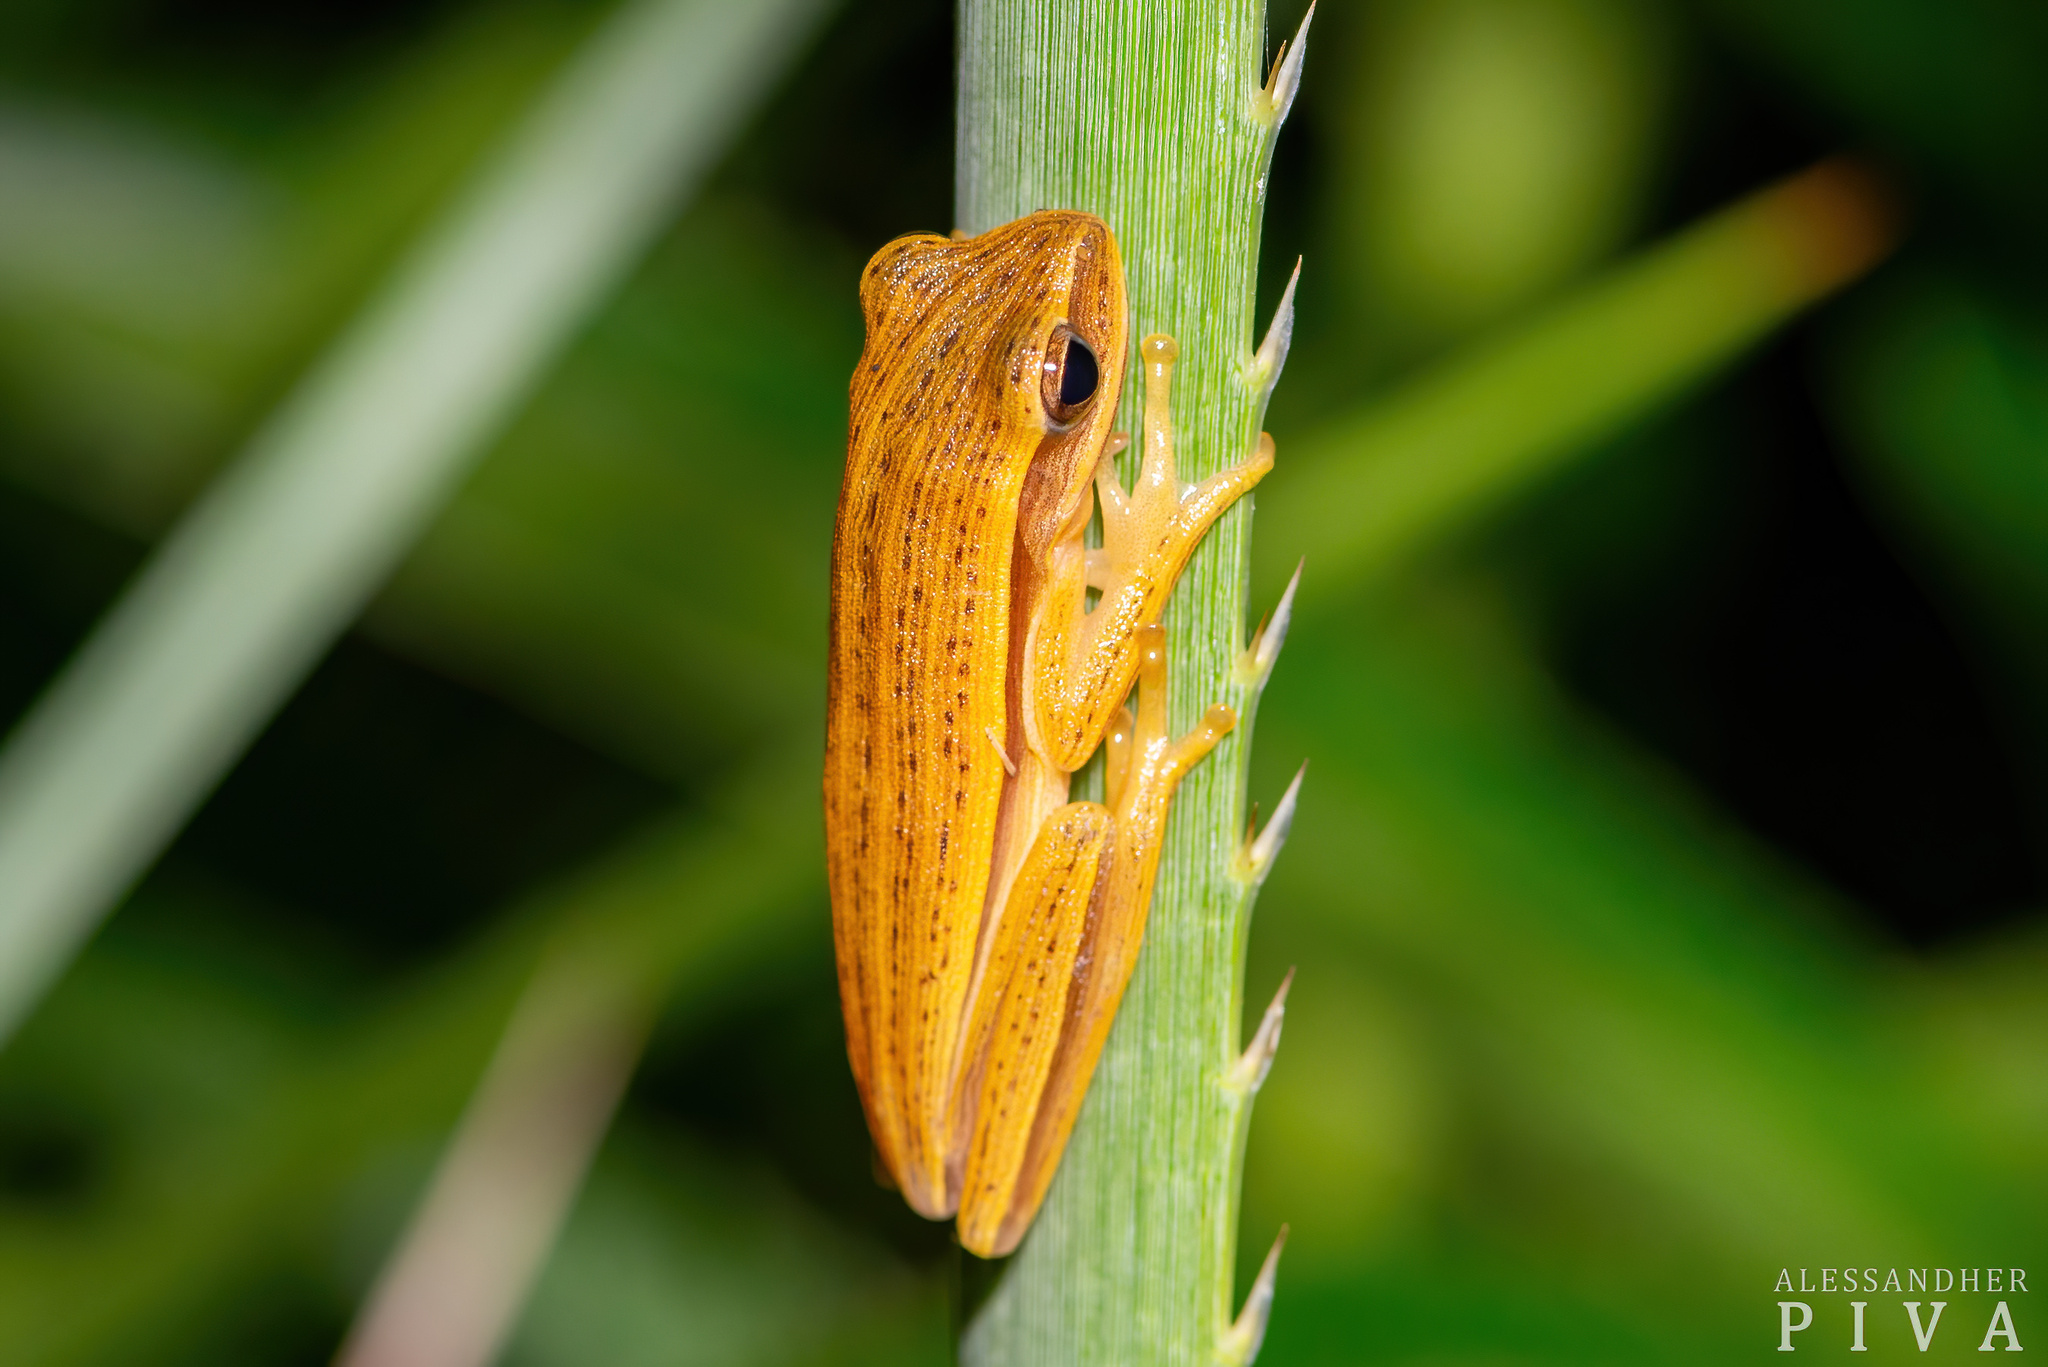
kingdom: Animalia
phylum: Chordata
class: Amphibia
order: Anura
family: Hylidae
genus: Boana
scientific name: Boana leptolineata
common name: Fine-lined treefrog
